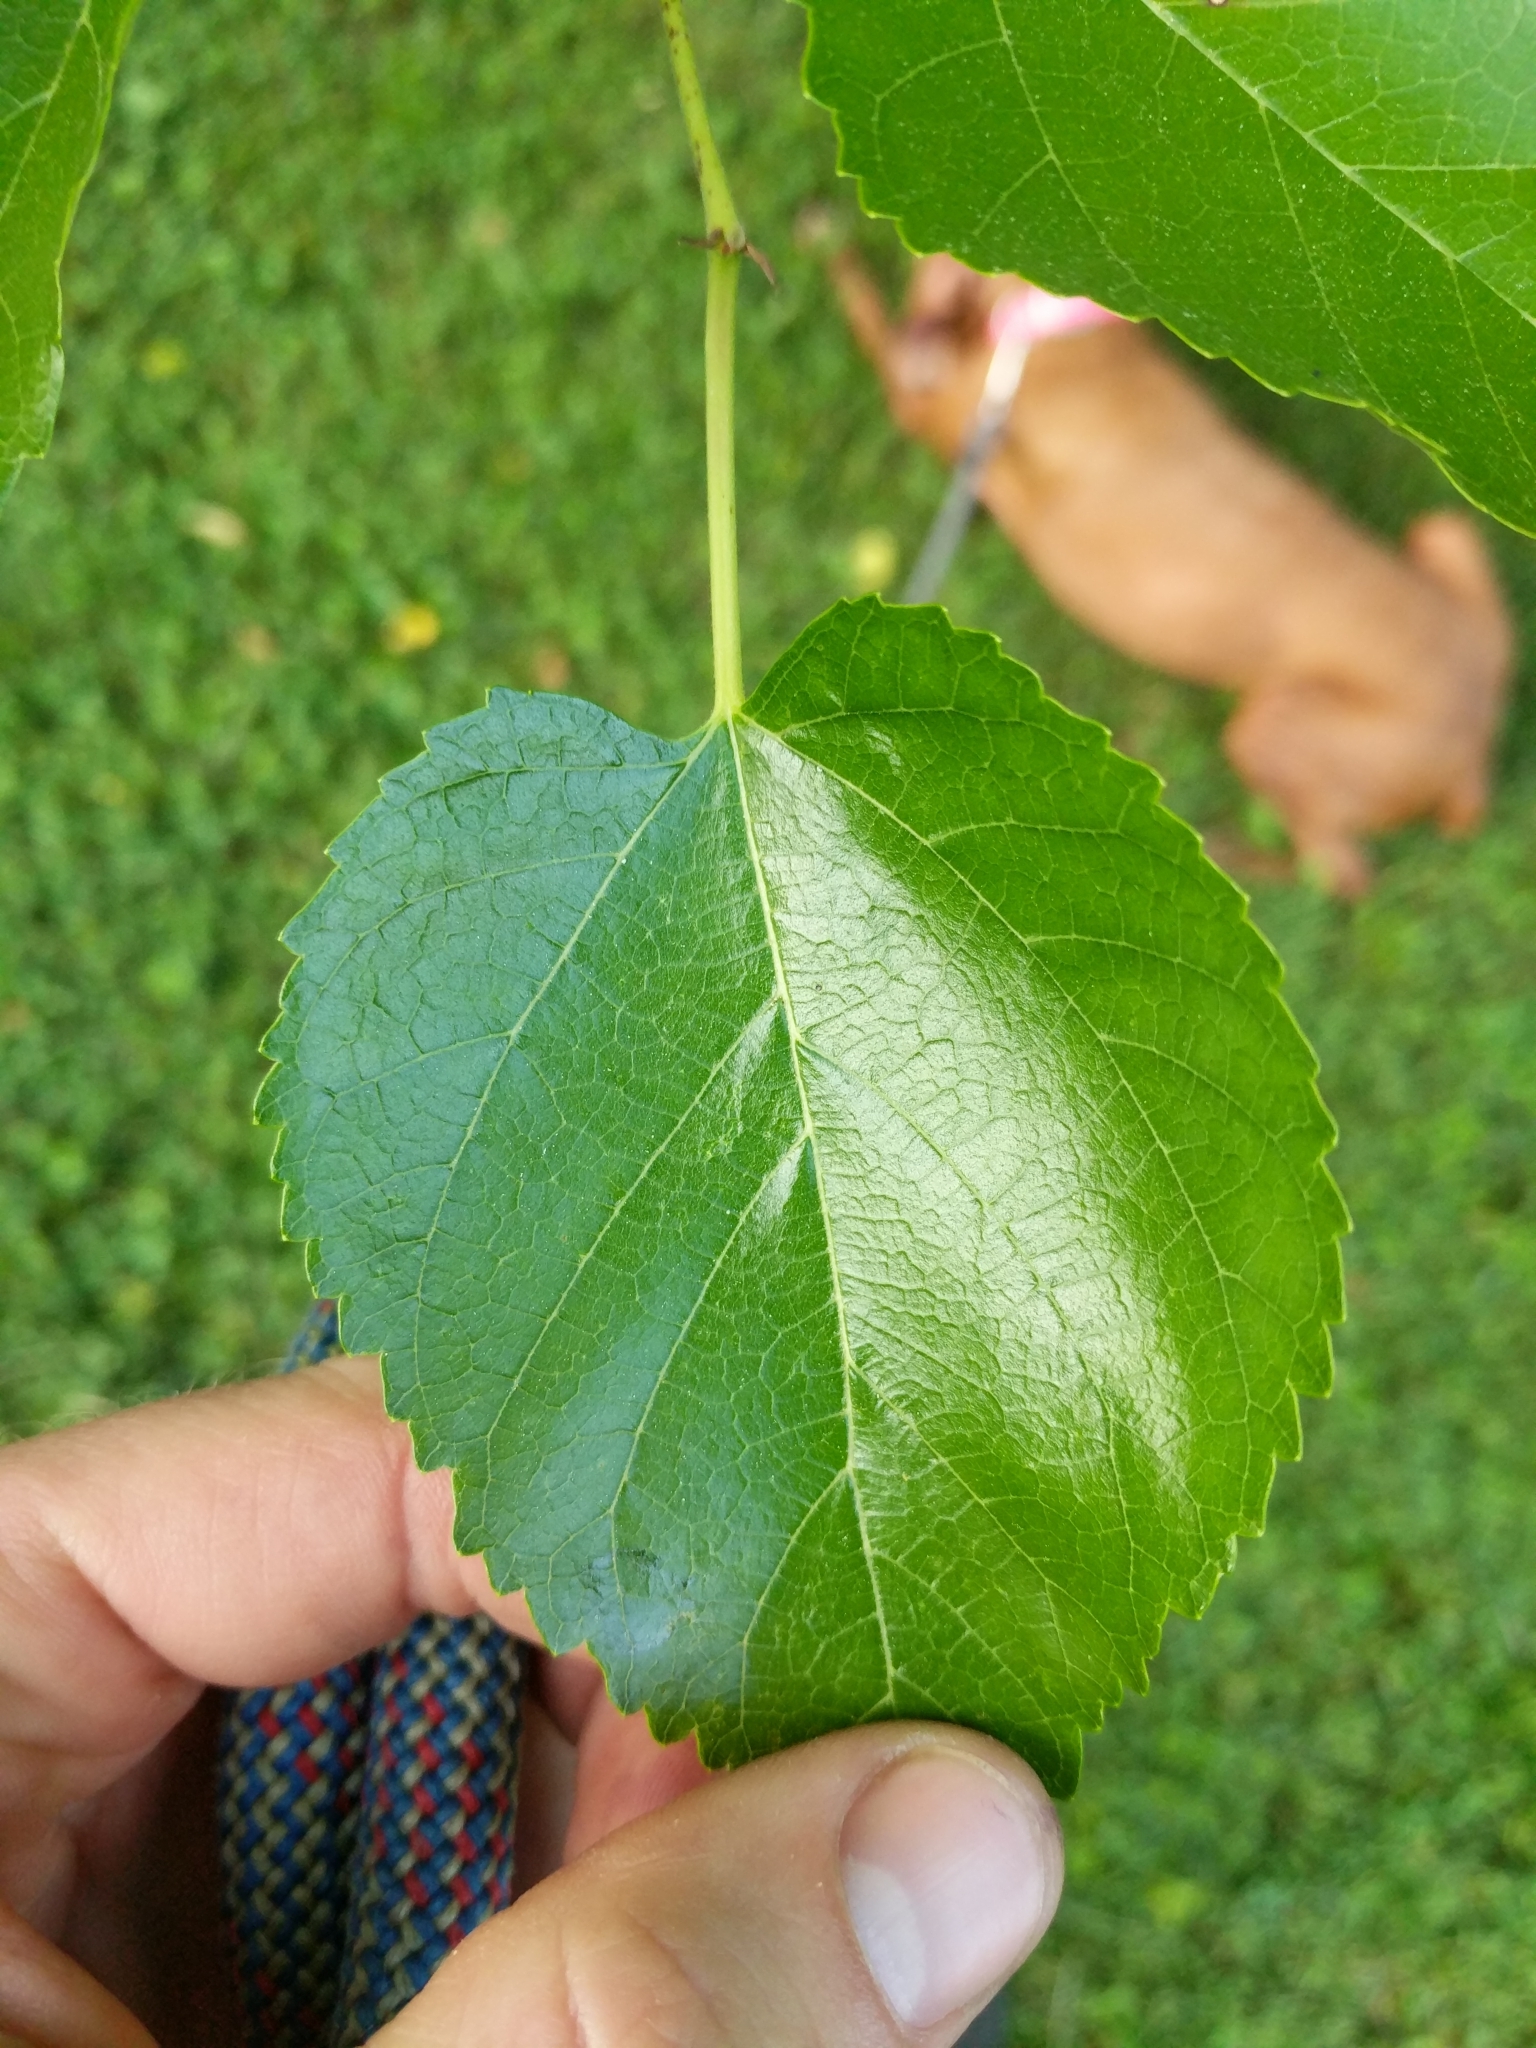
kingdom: Plantae
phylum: Tracheophyta
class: Magnoliopsida
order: Rosales
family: Moraceae
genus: Morus
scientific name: Morus alba
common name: White mulberry
